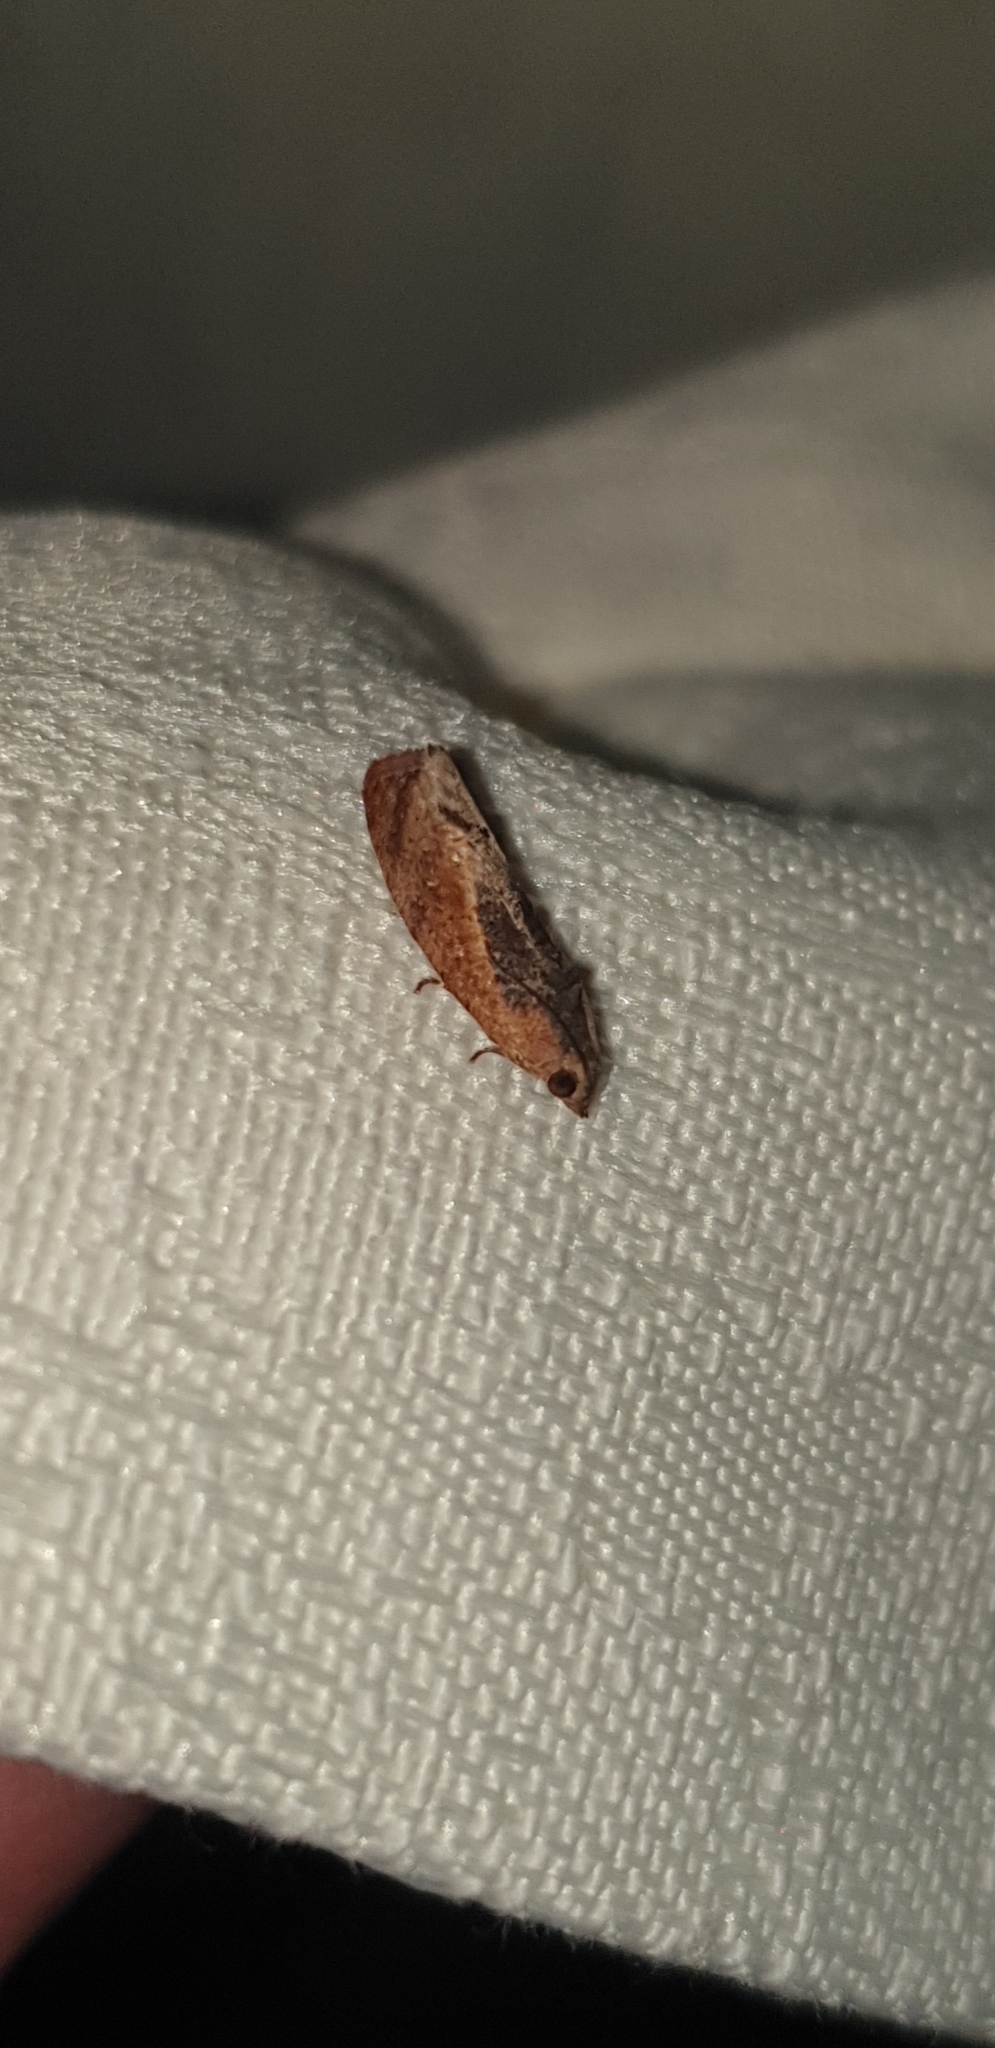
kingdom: Animalia
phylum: Arthropoda
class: Insecta
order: Lepidoptera
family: Tortricidae
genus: Cryptophlebia
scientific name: Cryptophlebia ombrodelta
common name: Litchi fruit moth
